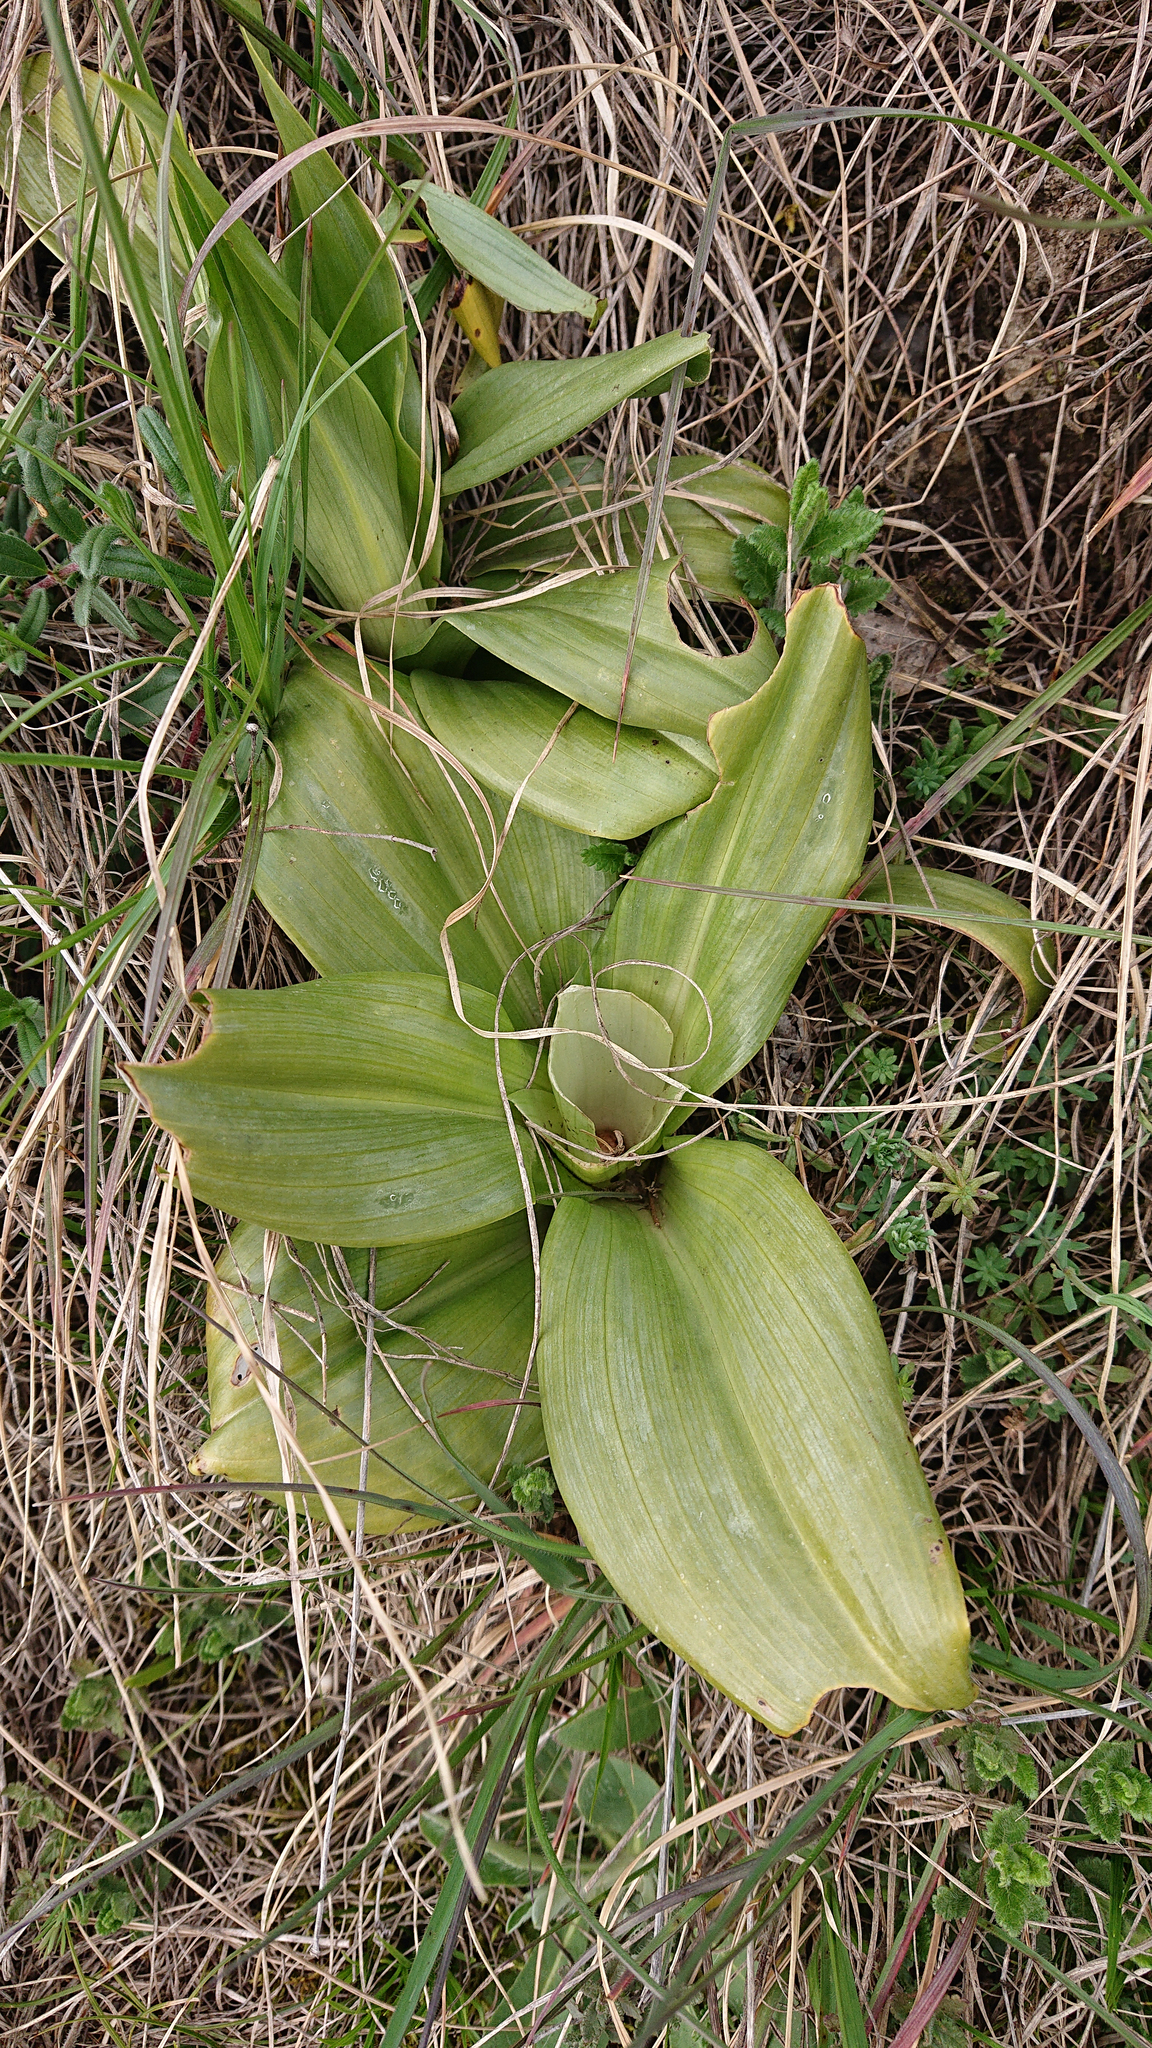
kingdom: Plantae
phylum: Tracheophyta
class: Liliopsida
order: Asparagales
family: Orchidaceae
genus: Himantoglossum
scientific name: Himantoglossum hircinum
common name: Lizard orchid
